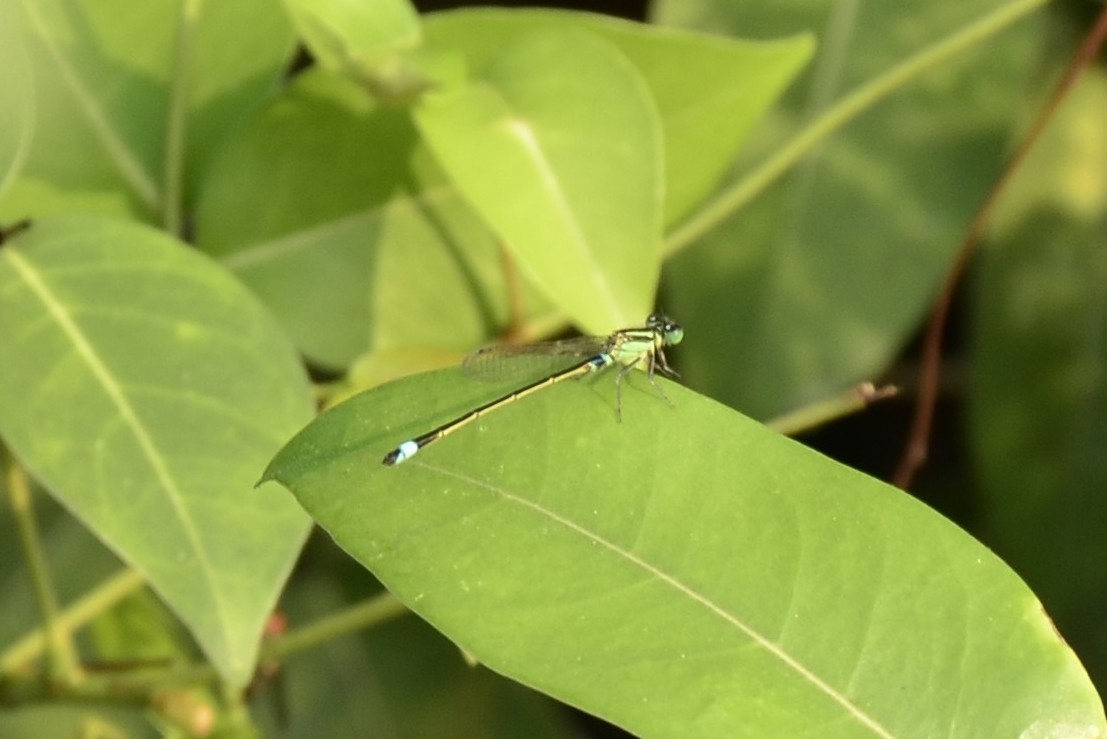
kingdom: Animalia
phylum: Arthropoda
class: Insecta
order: Odonata
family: Coenagrionidae
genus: Ischnura
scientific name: Ischnura senegalensis
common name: Tropical bluetail
